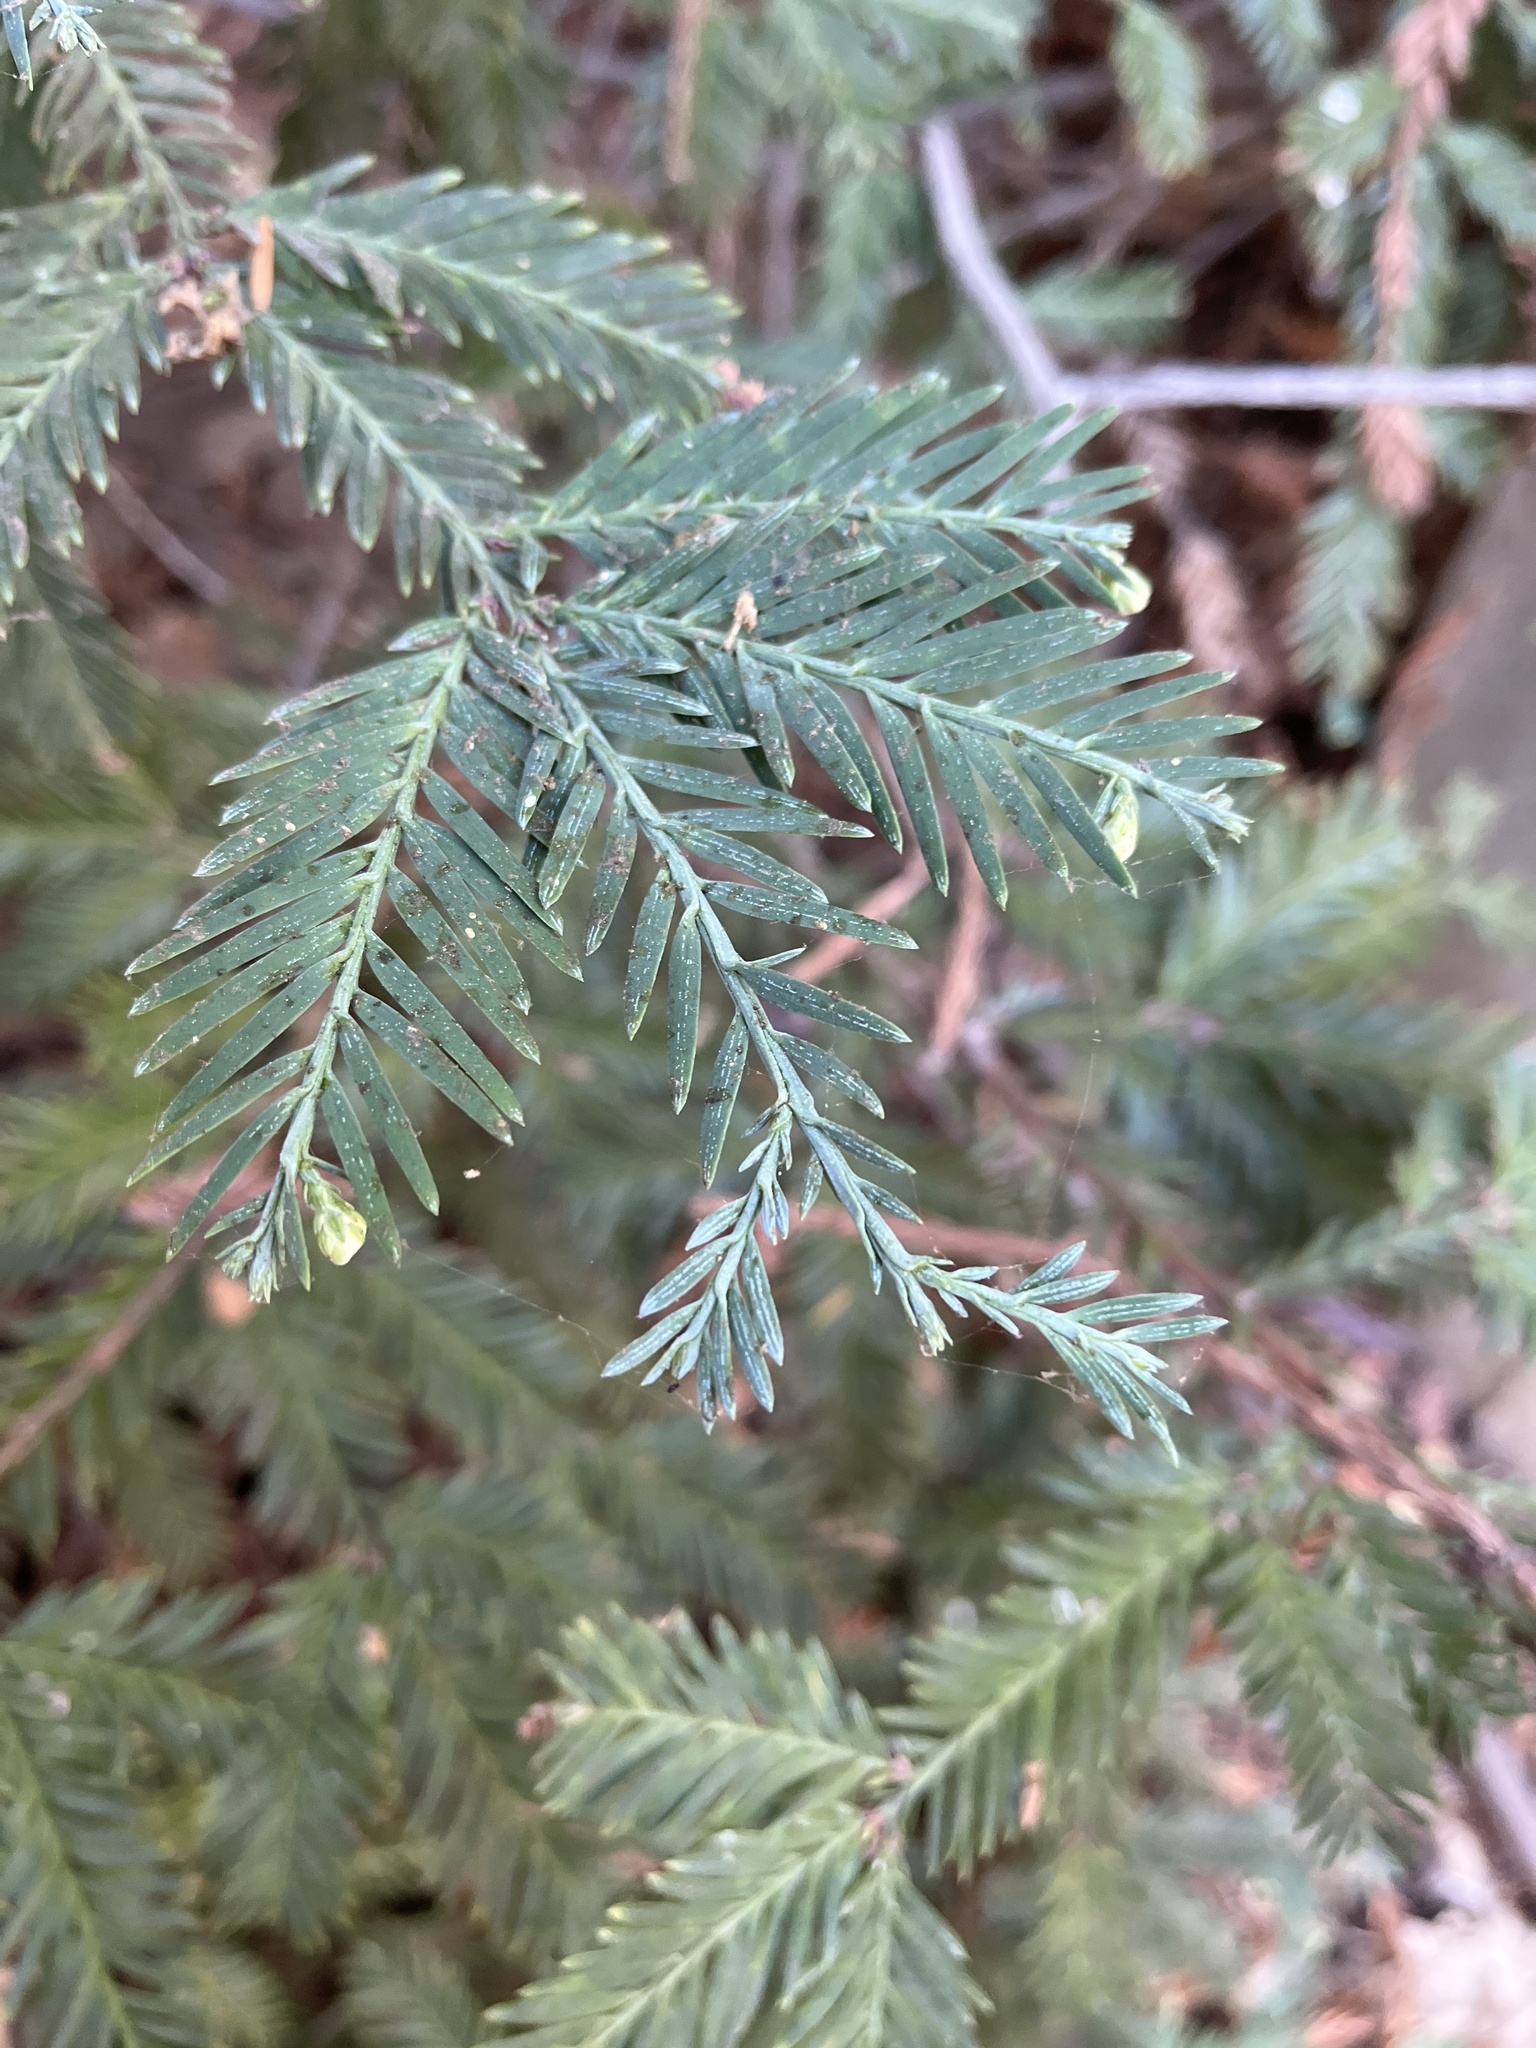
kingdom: Plantae
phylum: Tracheophyta
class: Pinopsida
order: Pinales
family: Cupressaceae
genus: Sequoia
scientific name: Sequoia sempervirens
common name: Coast redwood
